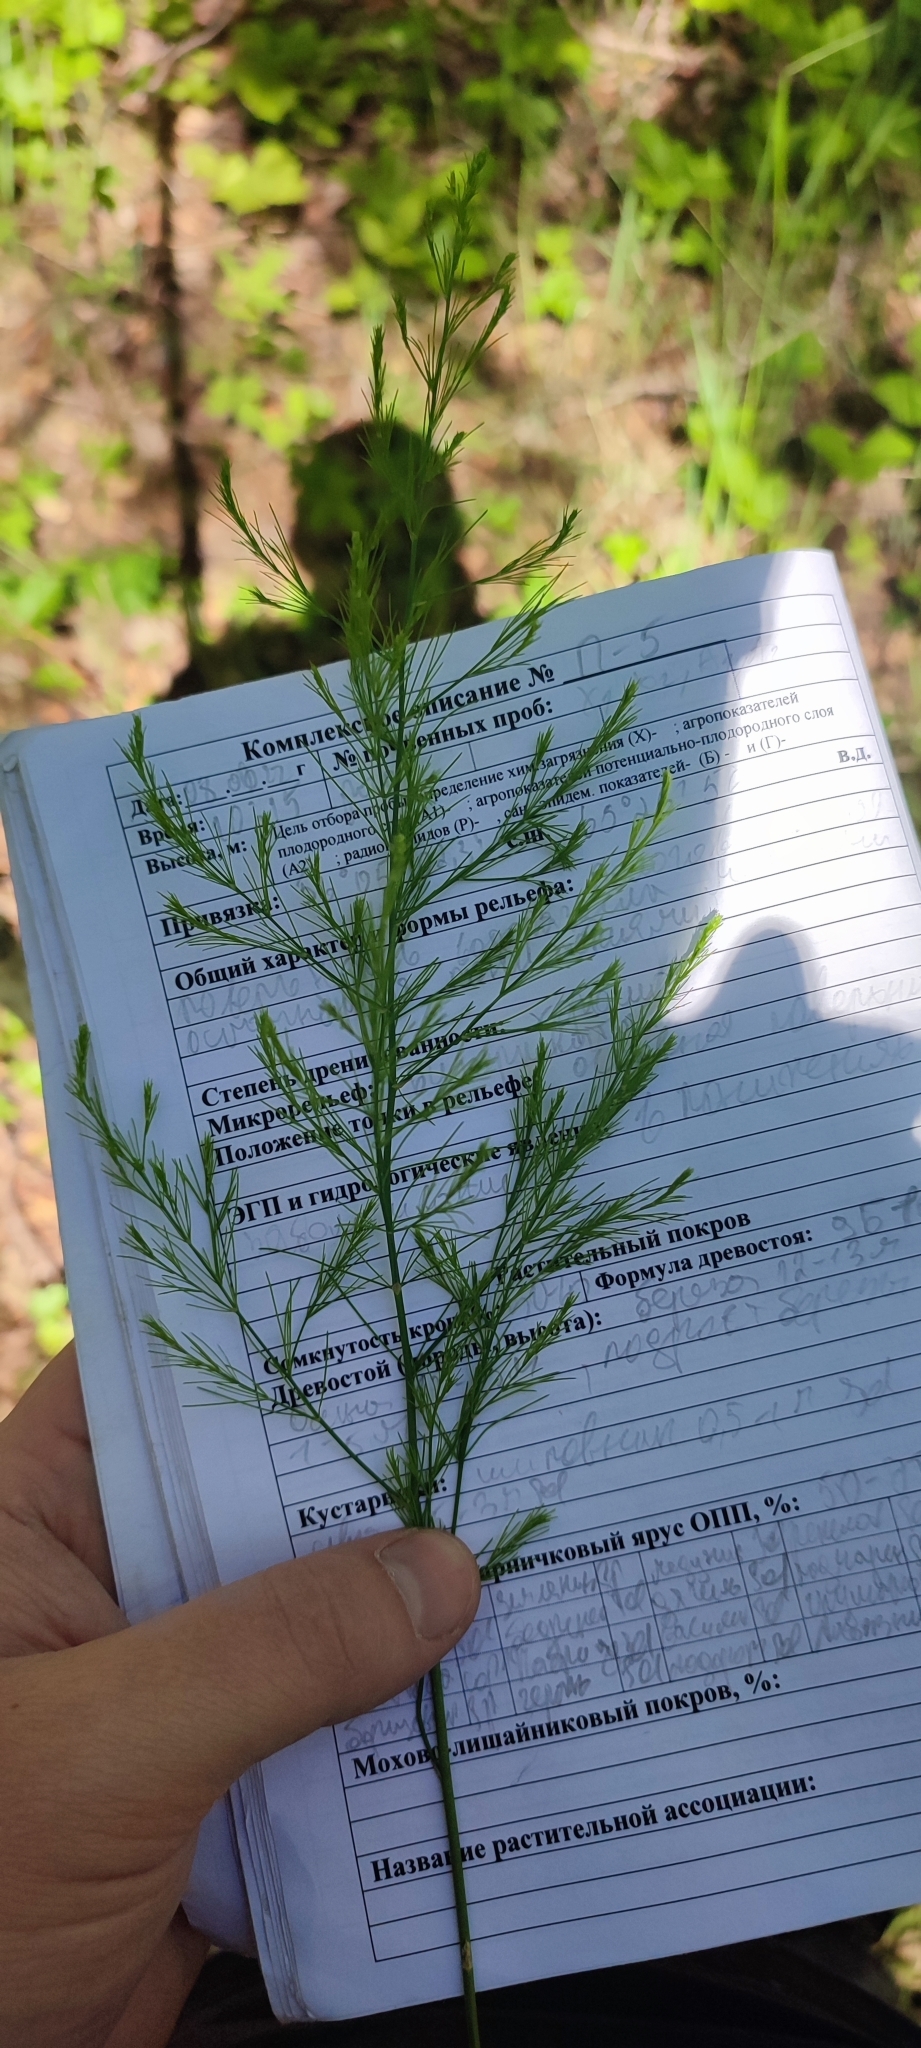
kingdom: Plantae
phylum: Tracheophyta
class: Liliopsida
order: Asparagales
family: Asparagaceae
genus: Asparagus
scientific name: Asparagus officinalis
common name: Garden asparagus
